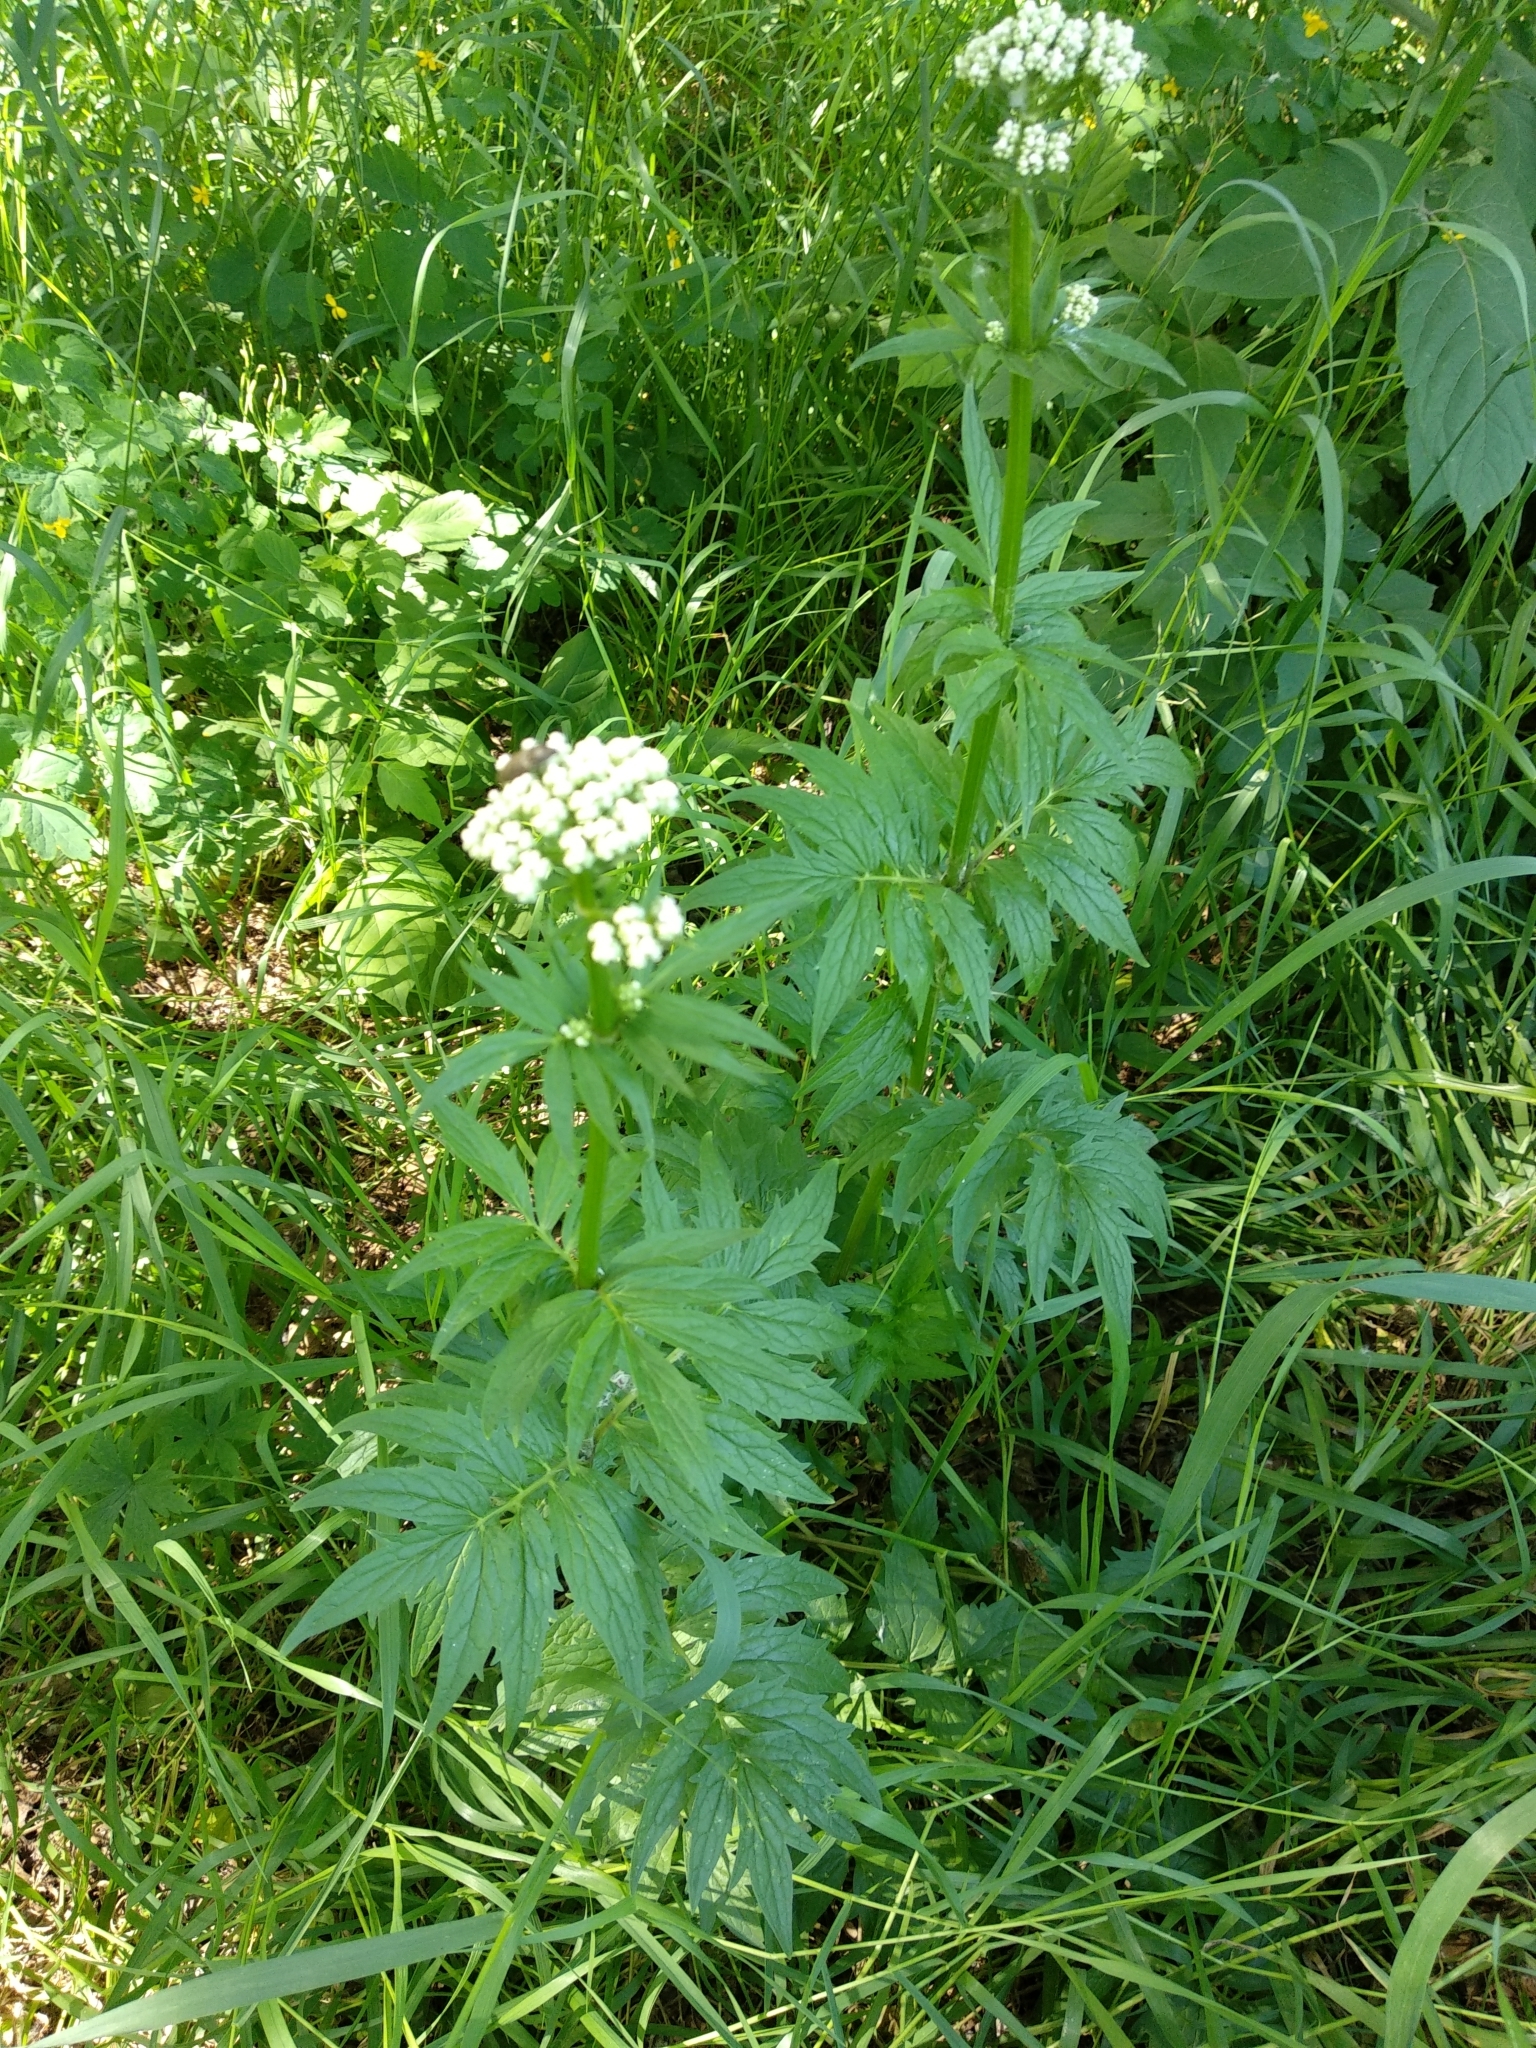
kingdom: Plantae
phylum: Tracheophyta
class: Magnoliopsida
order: Dipsacales
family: Caprifoliaceae
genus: Valeriana
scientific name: Valeriana officinalis
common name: Common valerian
